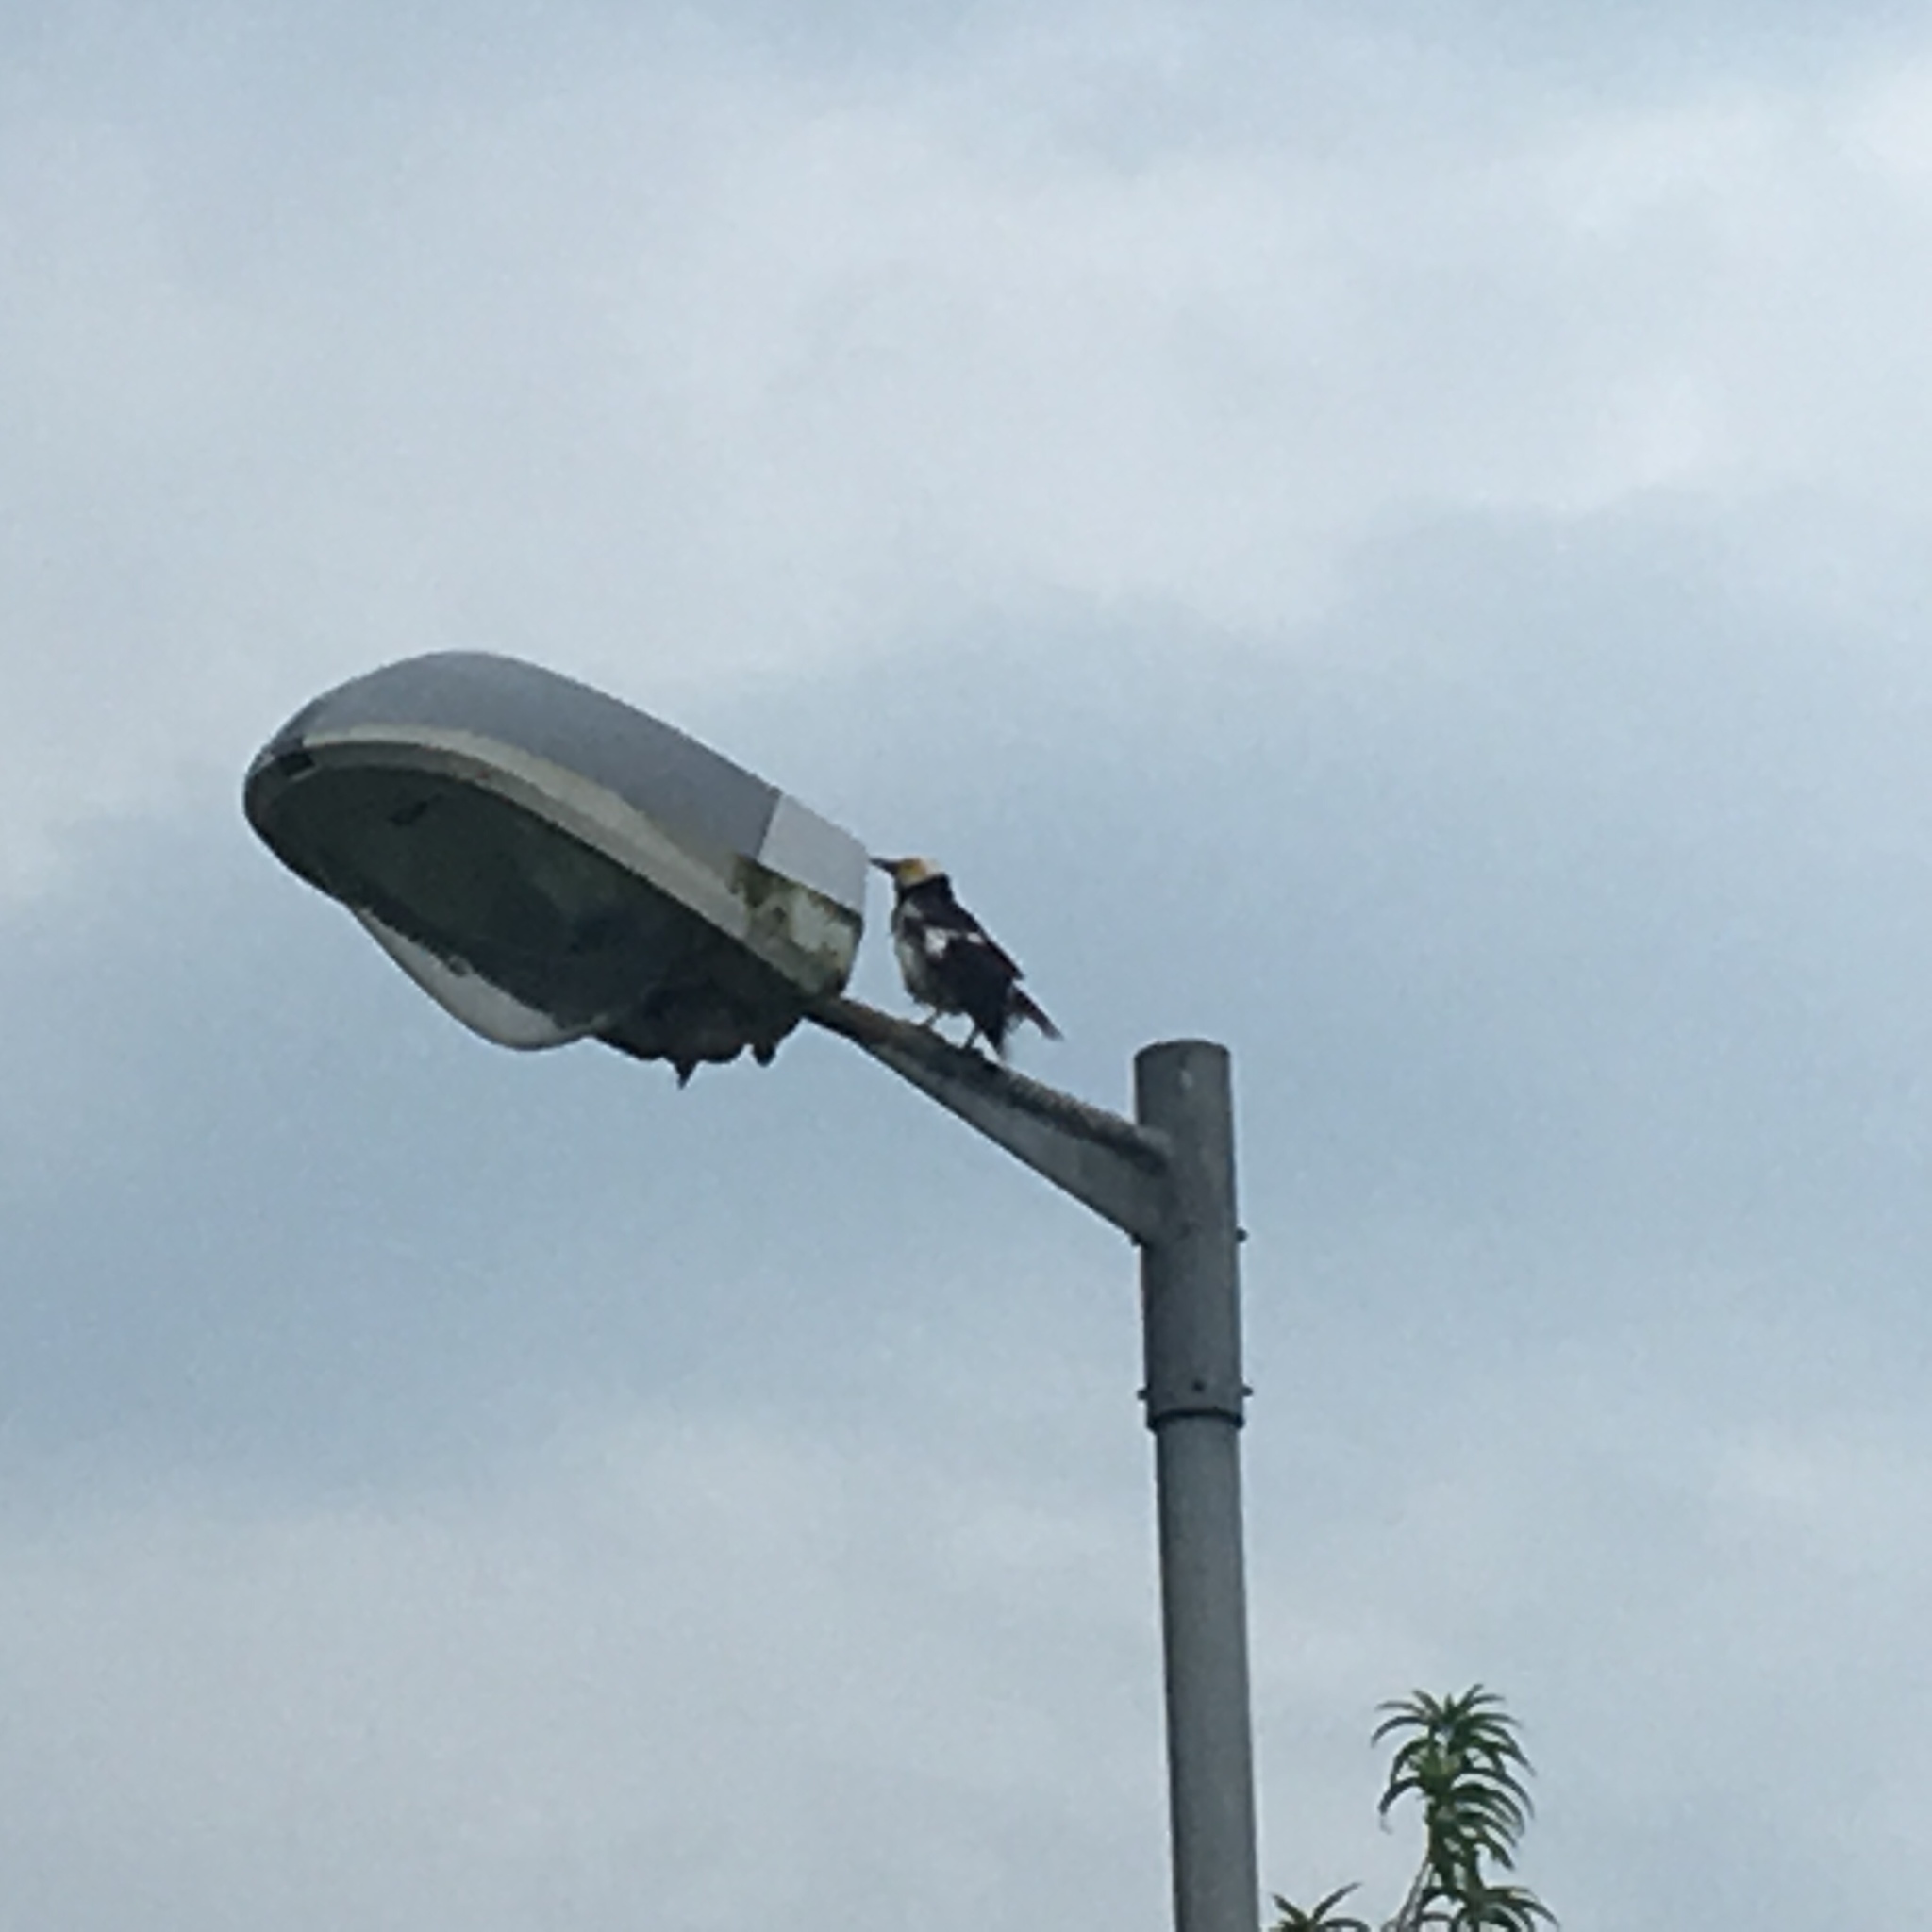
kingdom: Animalia
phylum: Chordata
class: Aves
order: Passeriformes
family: Sturnidae
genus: Gracupica
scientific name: Gracupica nigricollis
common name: Black-collared starling
